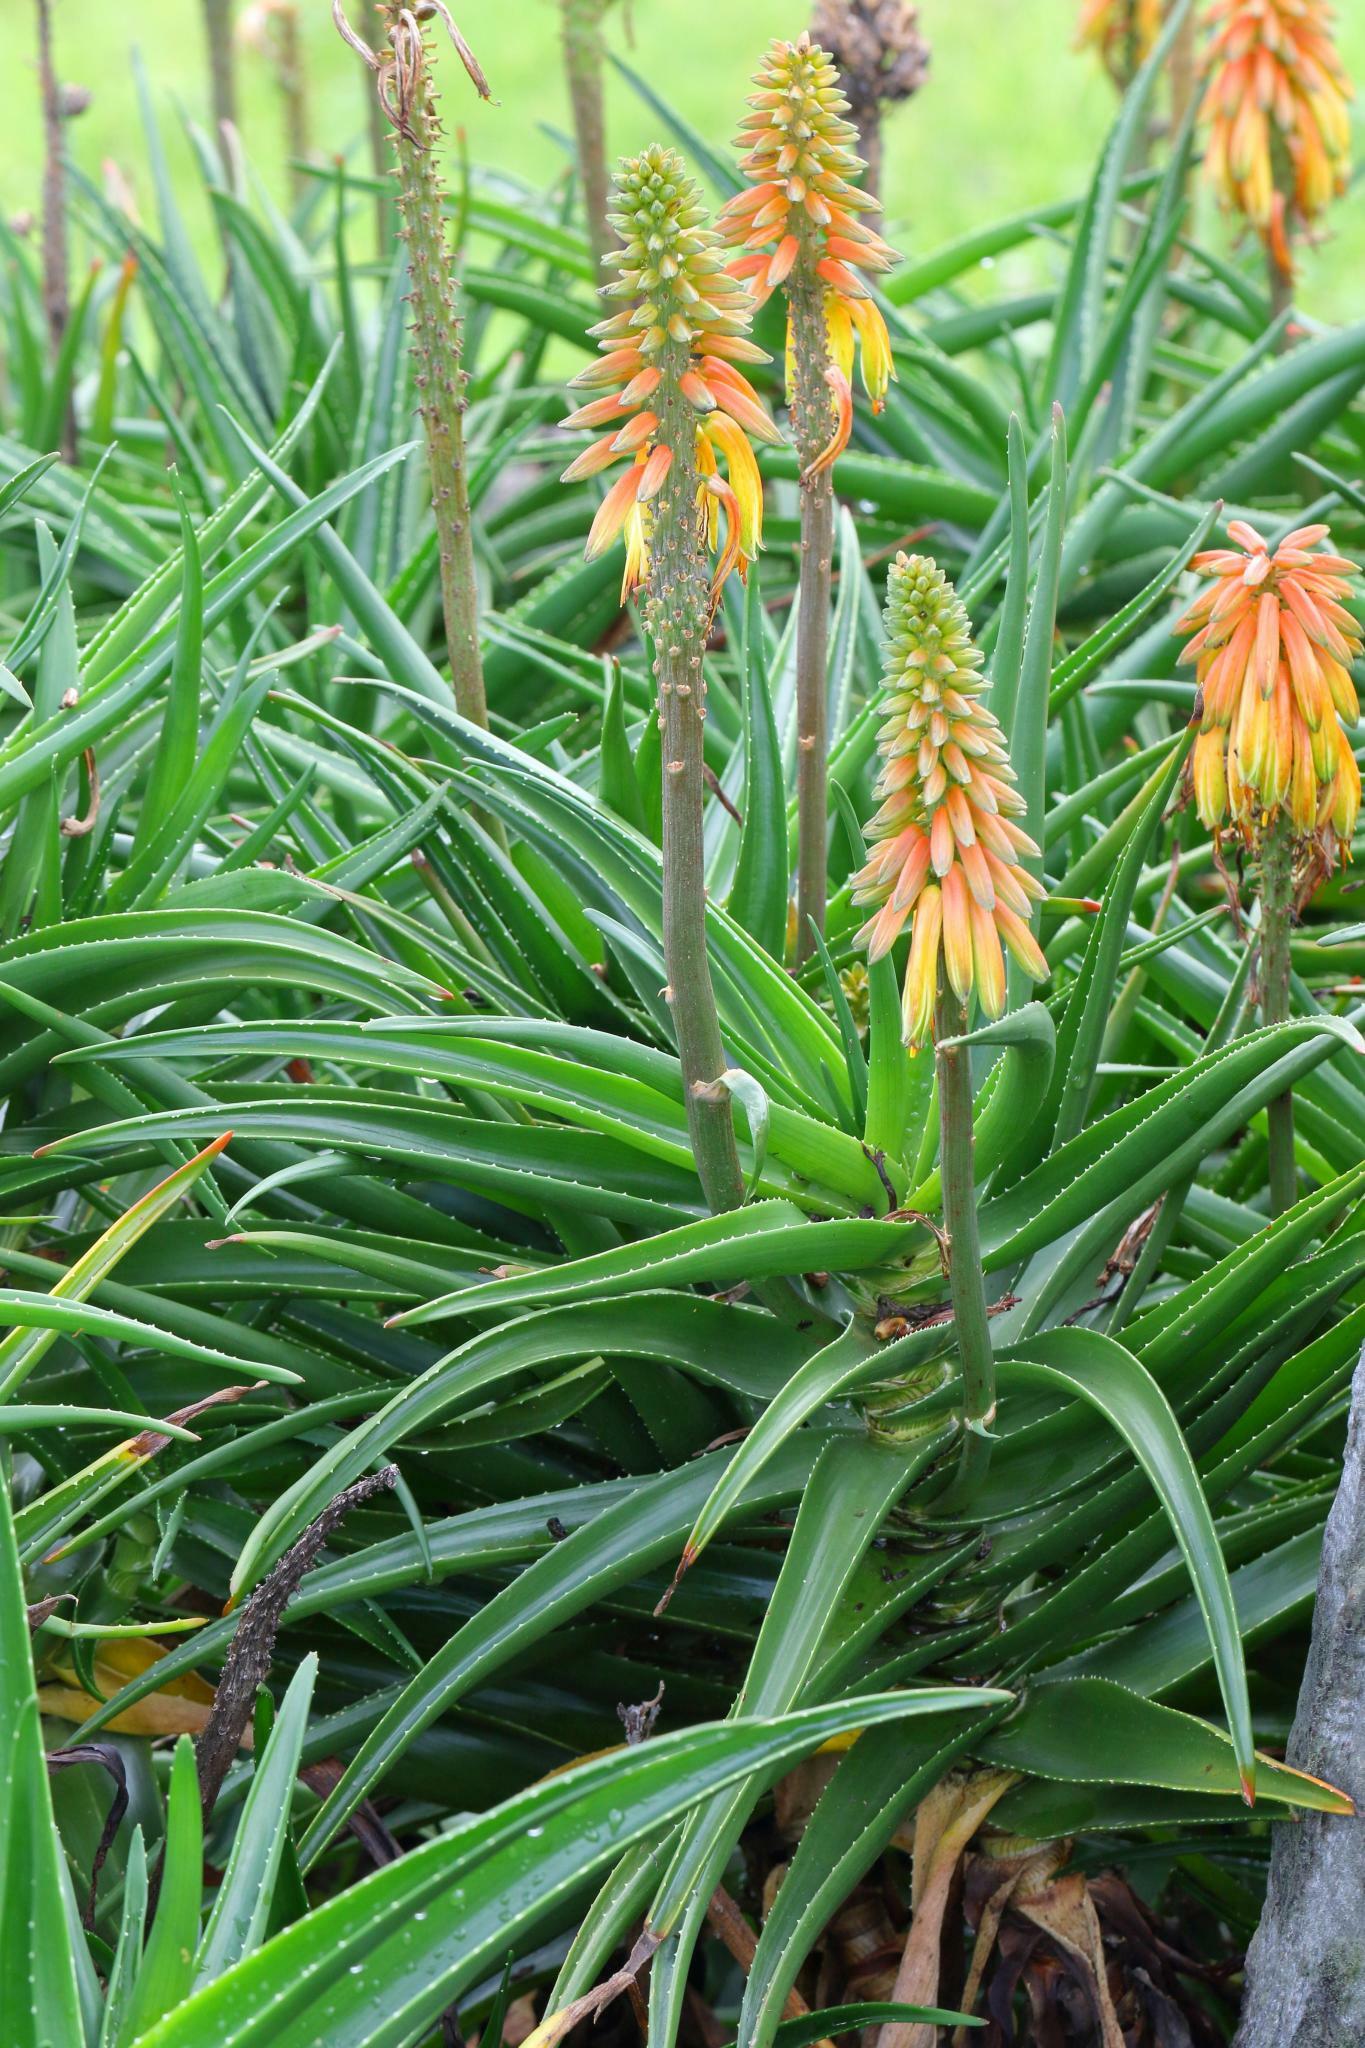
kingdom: Plantae
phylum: Tracheophyta
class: Liliopsida
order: Asparagales
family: Asphodelaceae
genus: Aloiampelos
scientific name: Aloiampelos striatula
